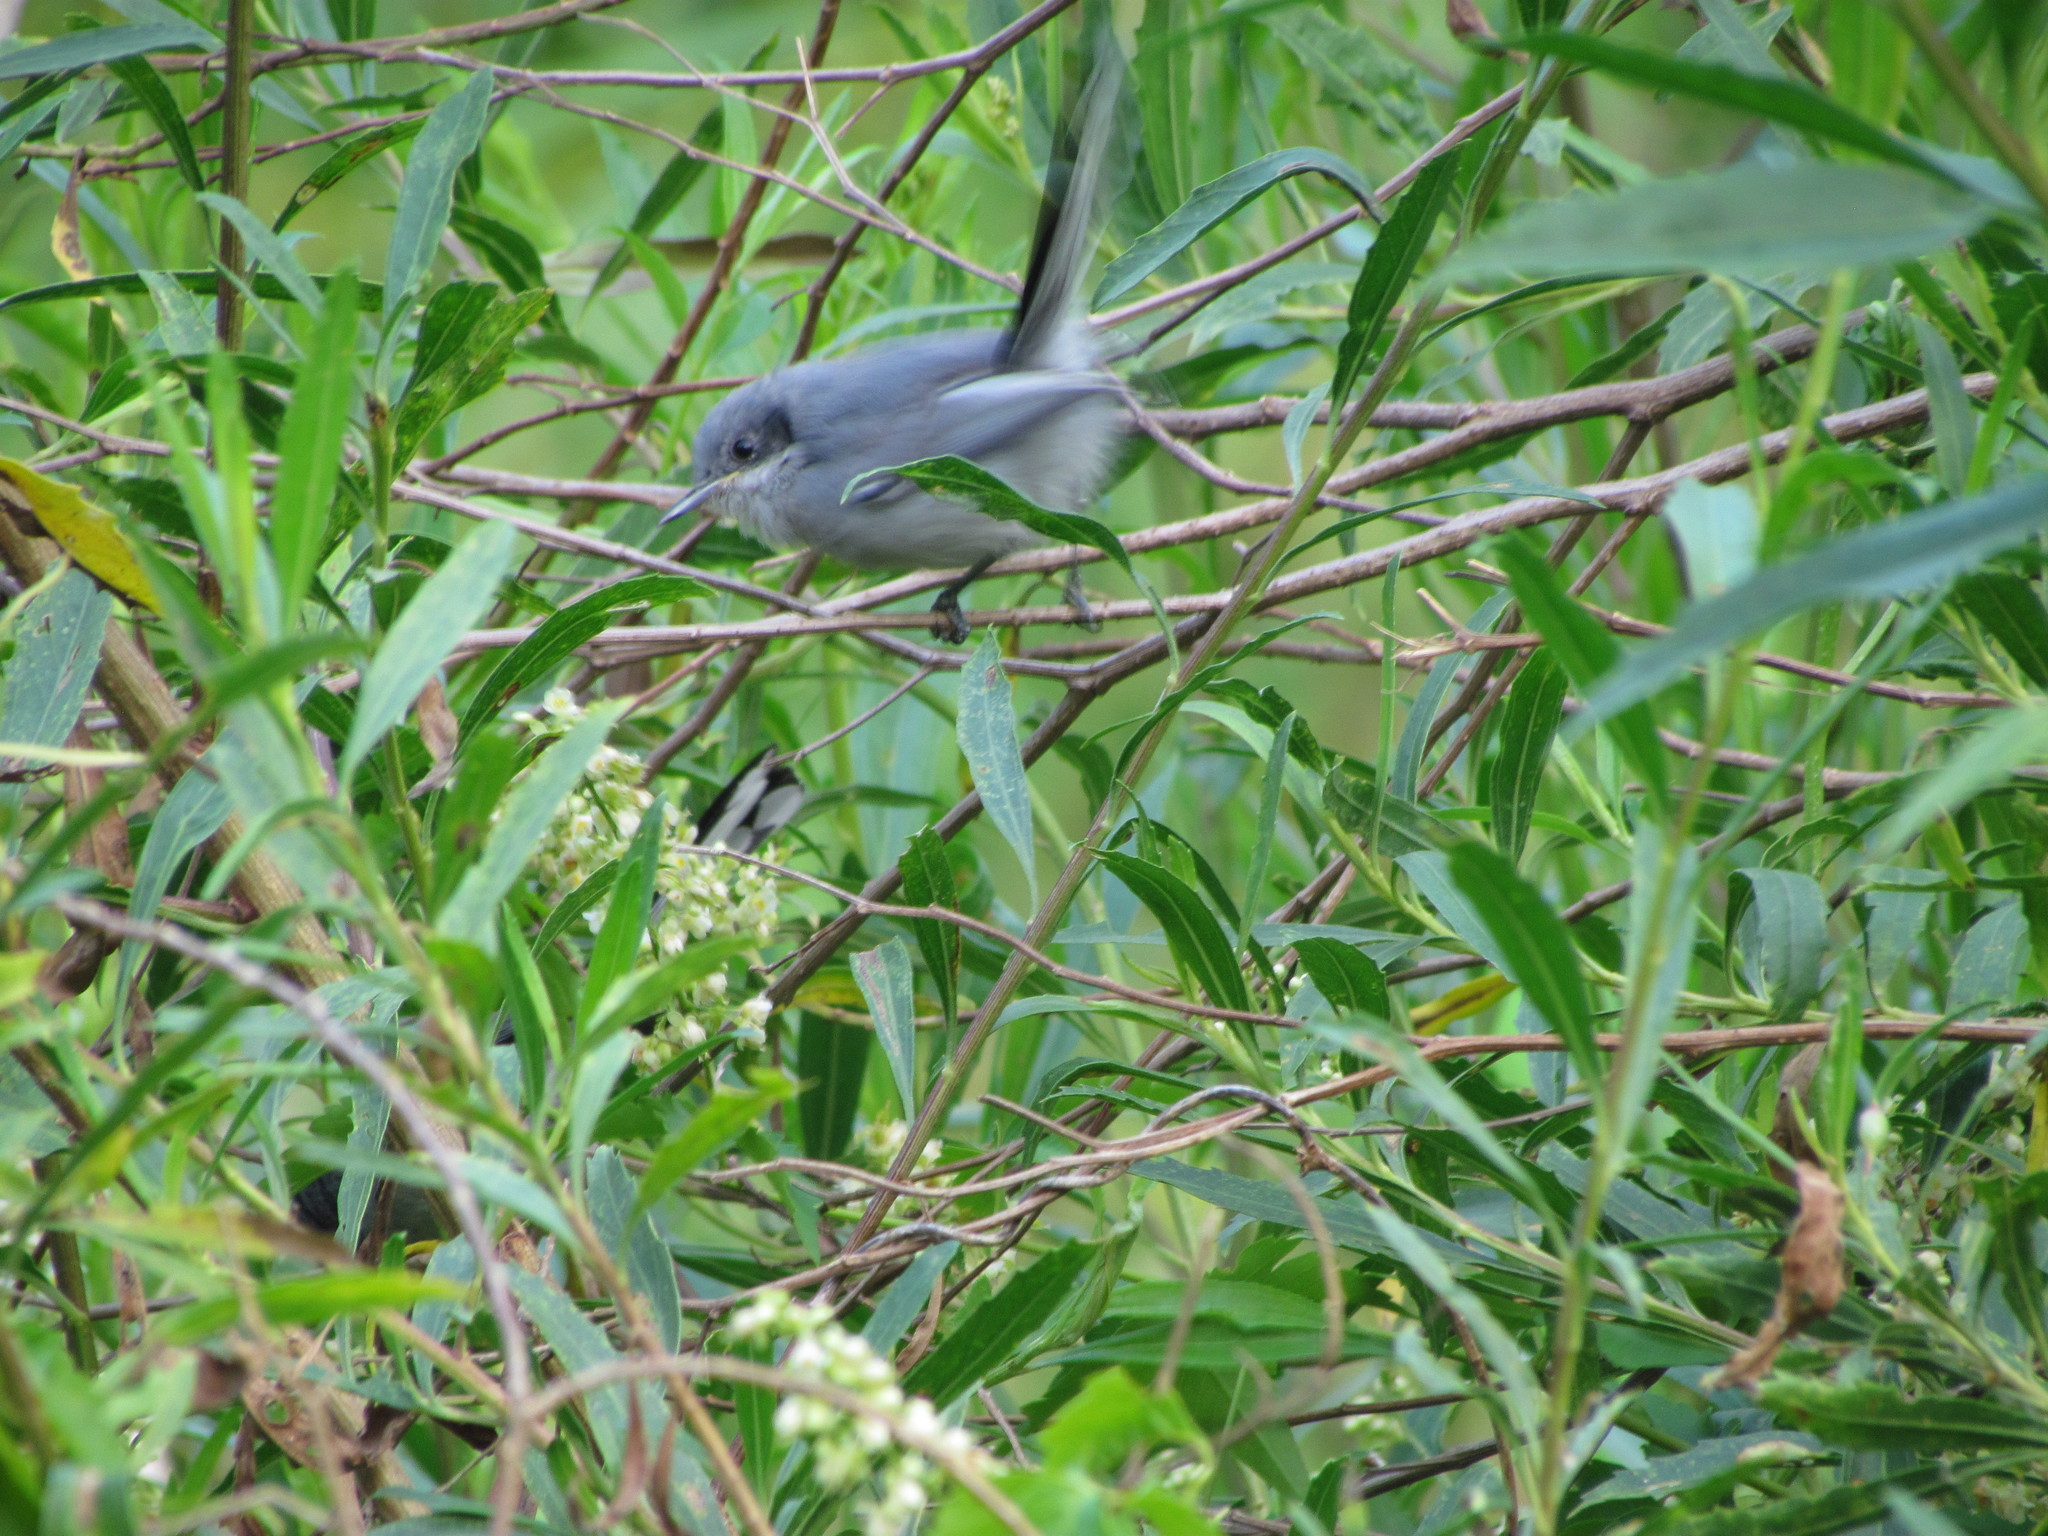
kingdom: Animalia
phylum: Chordata
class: Aves
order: Passeriformes
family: Polioptilidae
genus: Polioptila
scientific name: Polioptila dumicola
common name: Masked gnatcatcher
